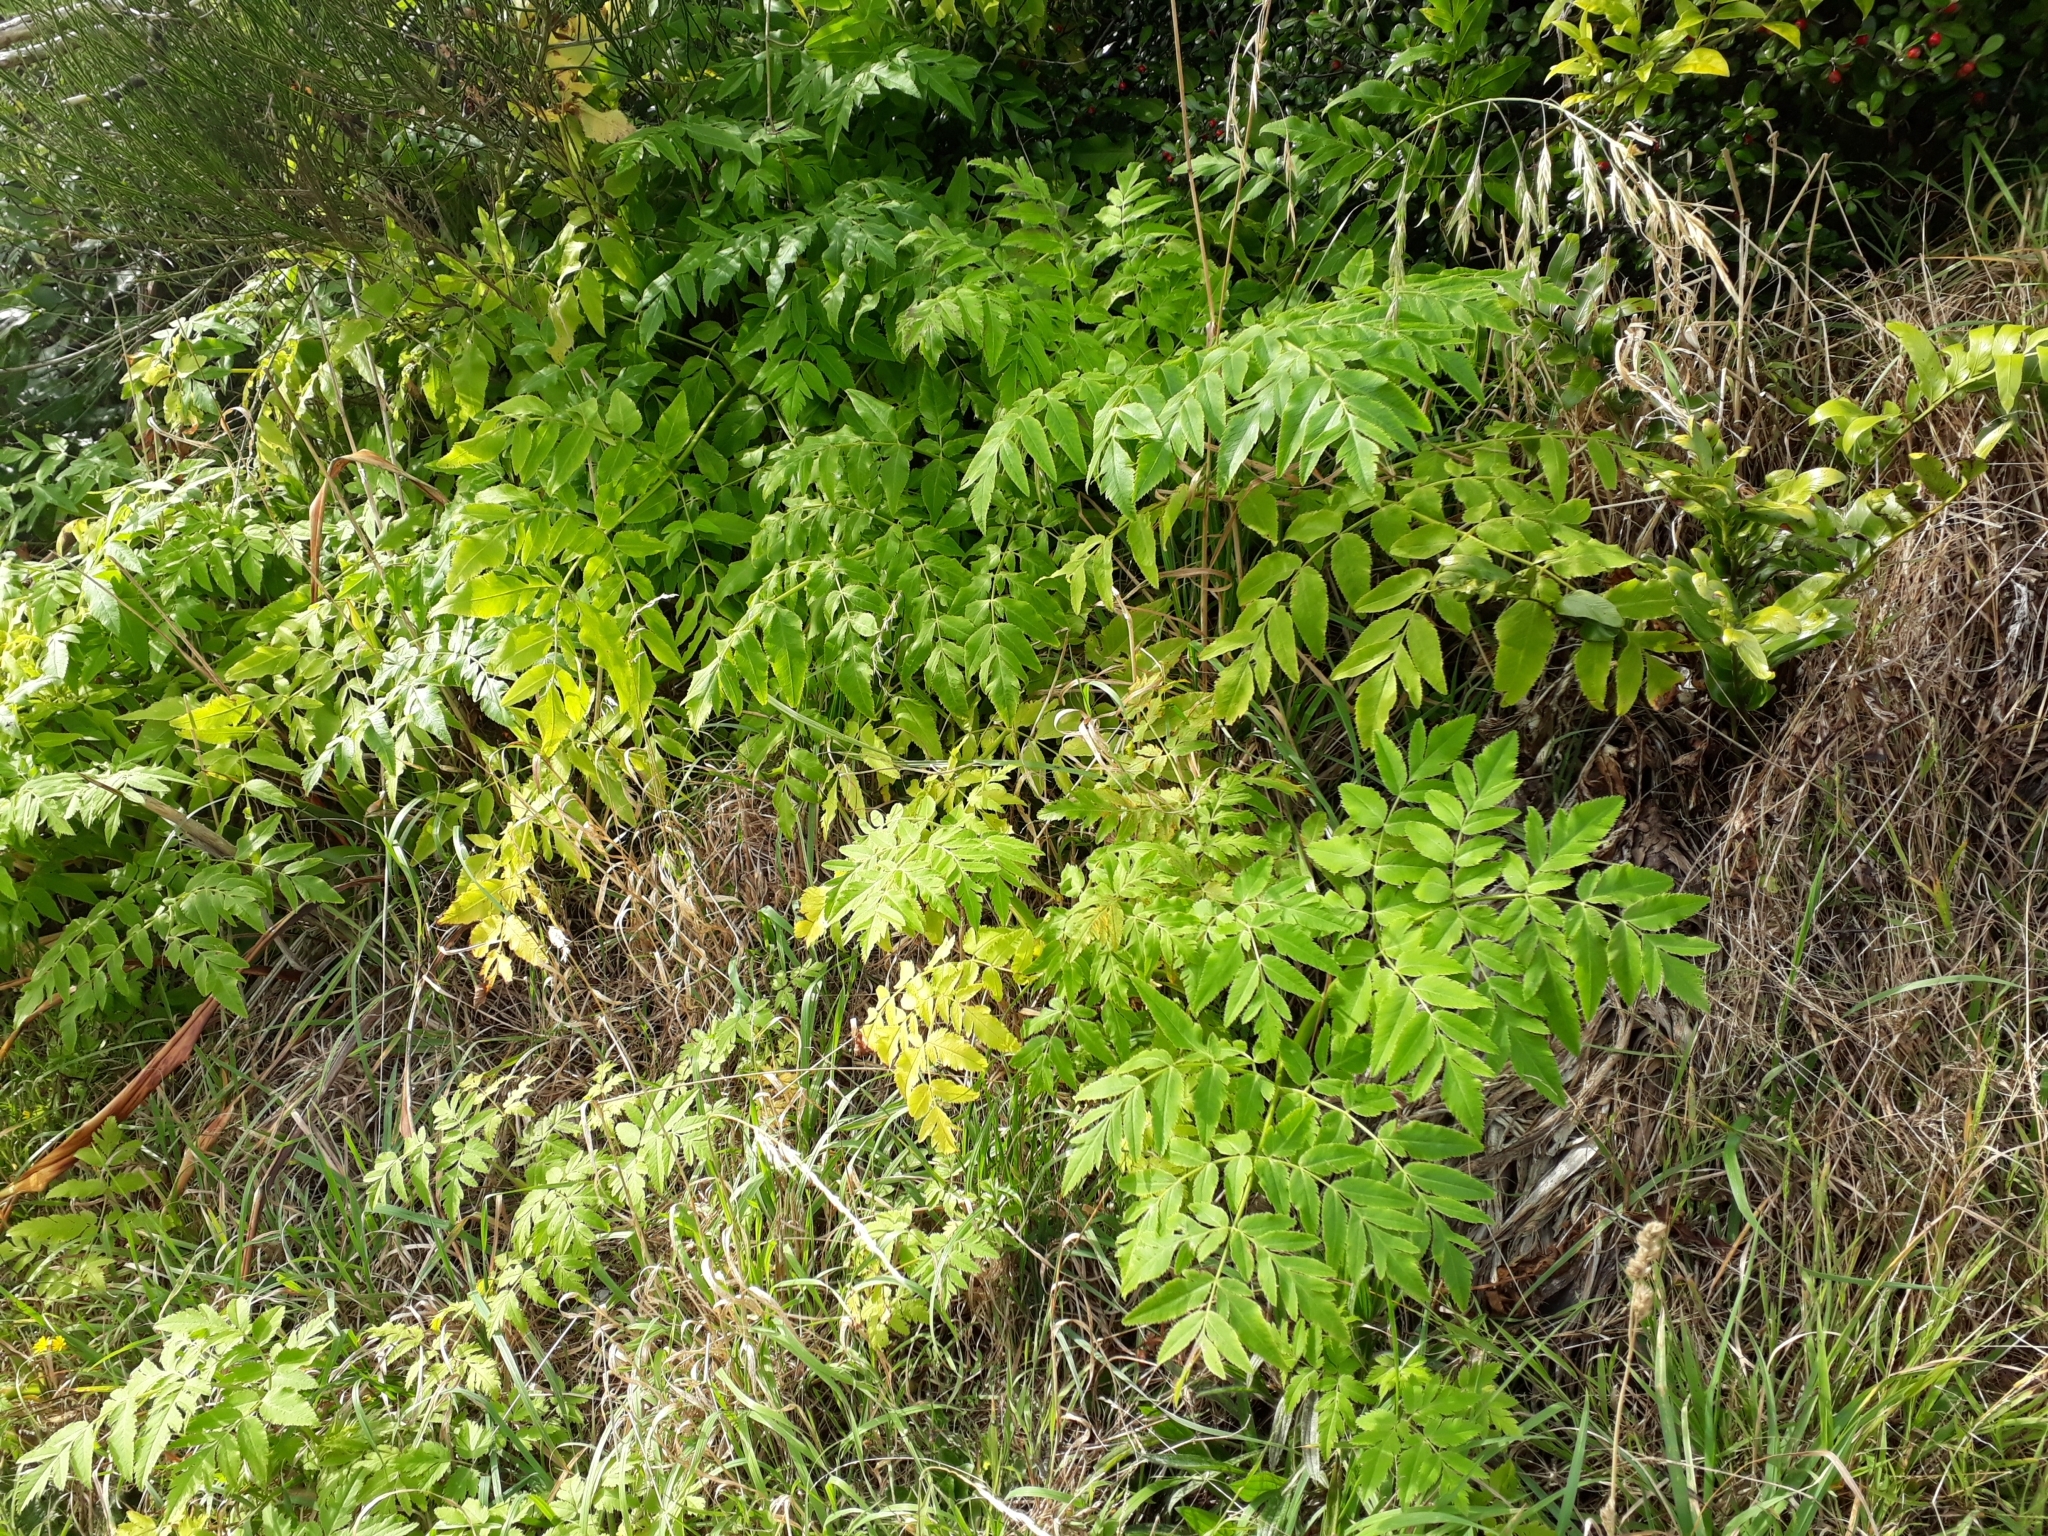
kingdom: Plantae
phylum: Tracheophyta
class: Magnoliopsida
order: Apiales
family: Apiaceae
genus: Daucus
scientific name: Daucus decipiens
